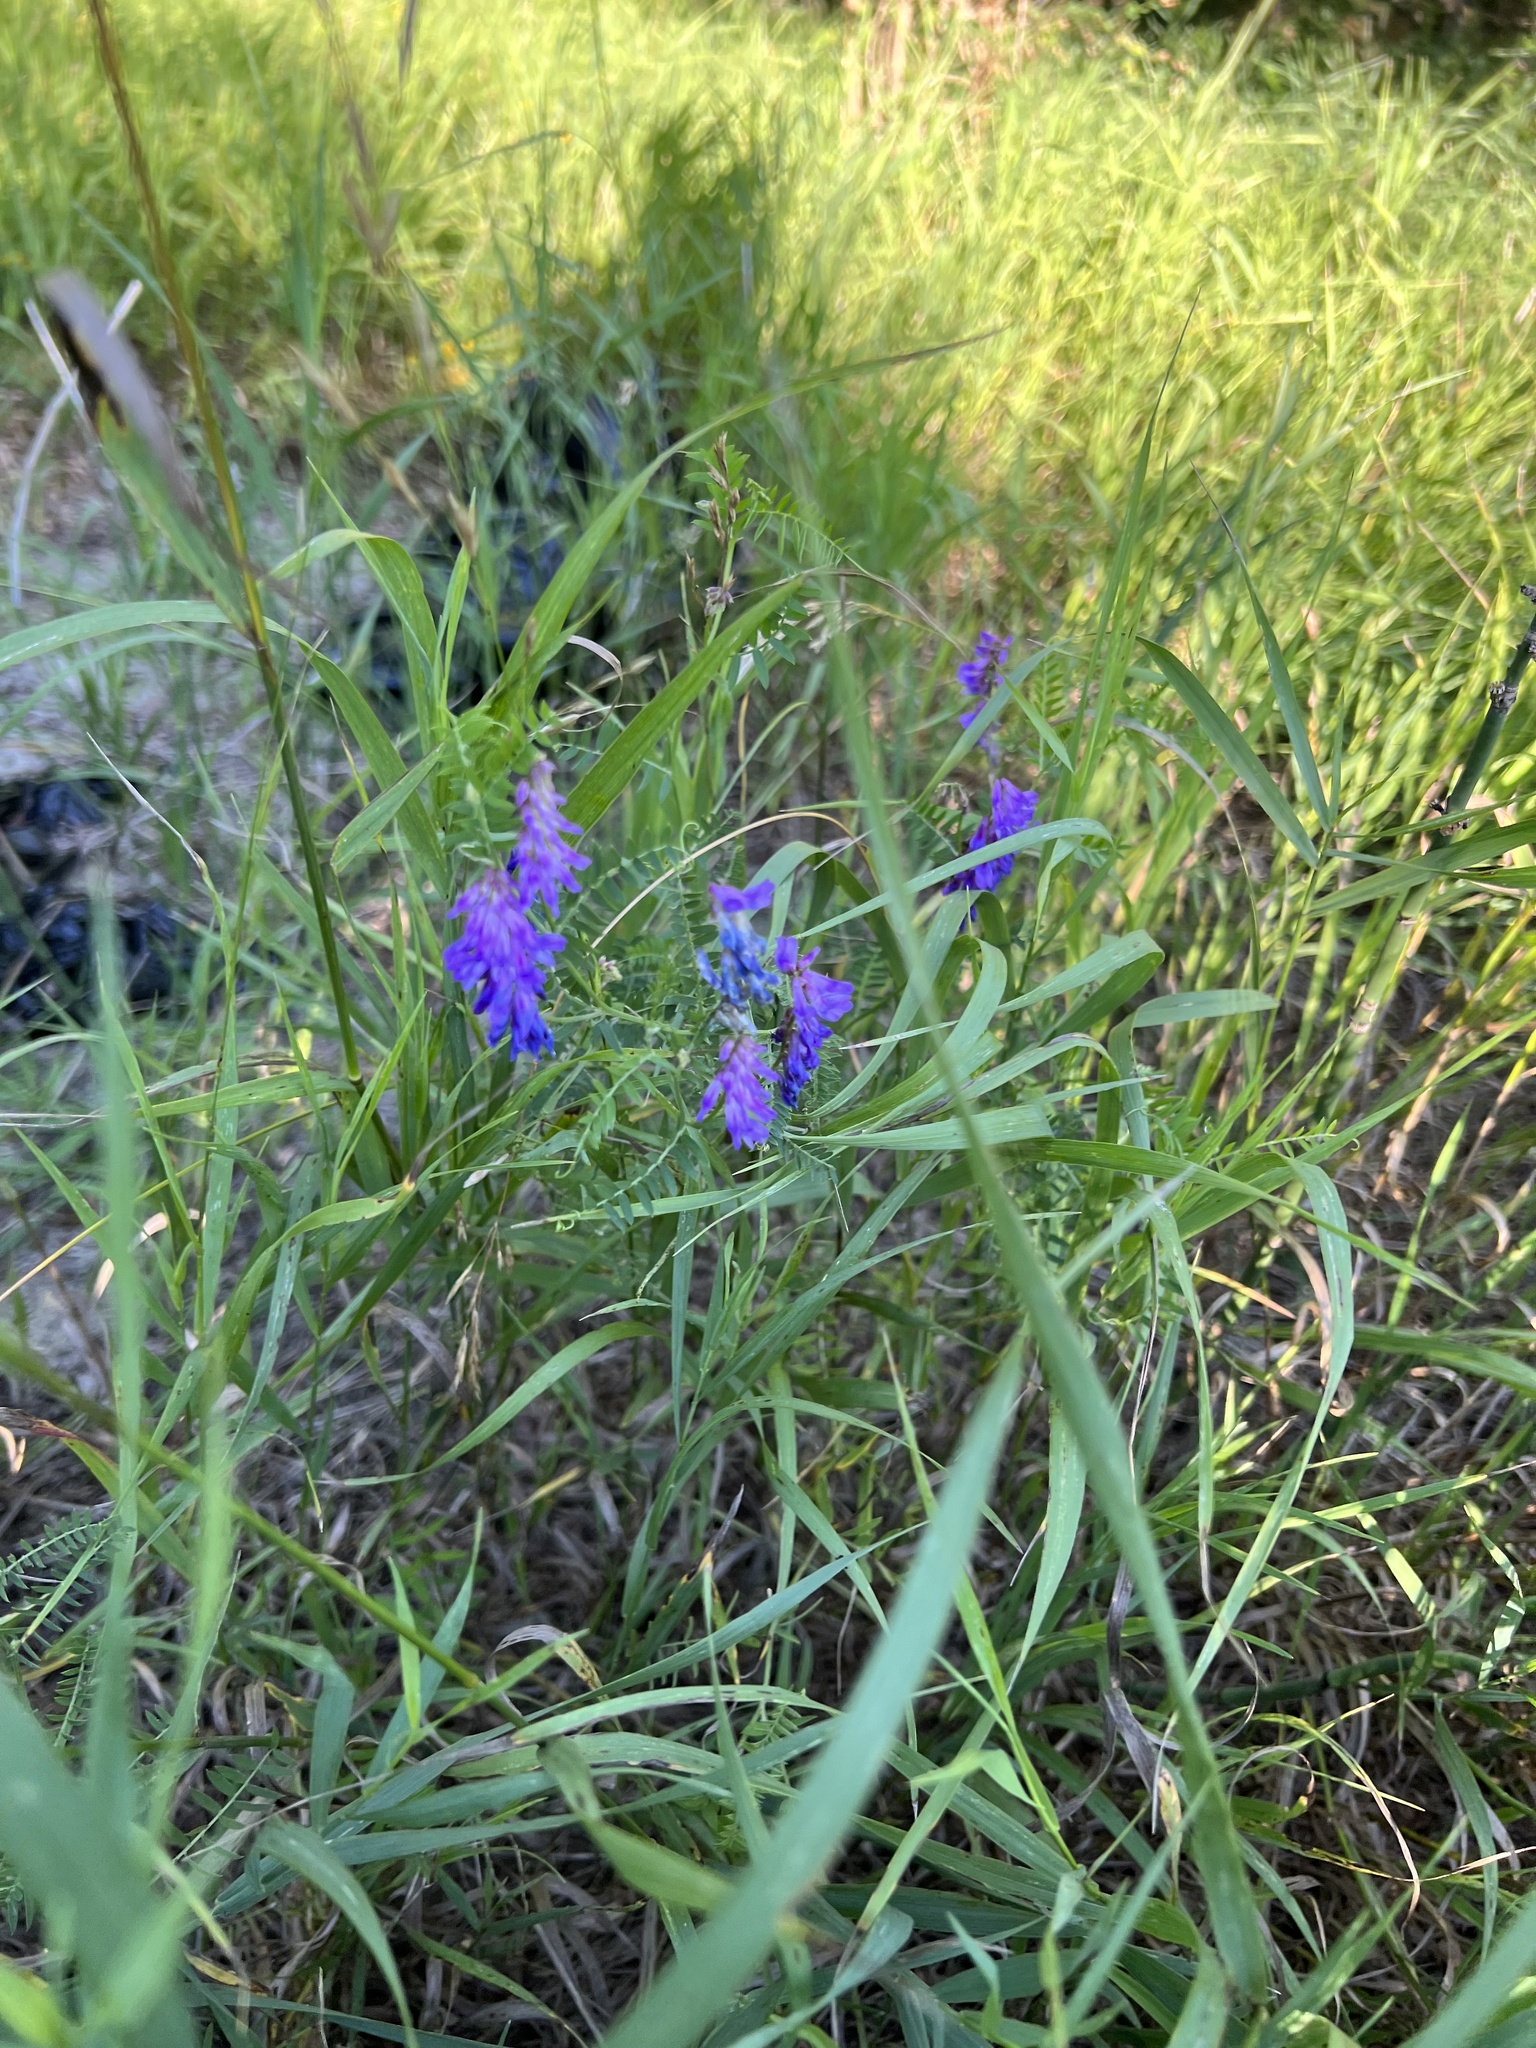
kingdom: Plantae
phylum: Tracheophyta
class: Magnoliopsida
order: Fabales
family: Fabaceae
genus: Vicia
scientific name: Vicia cracca
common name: Bird vetch
